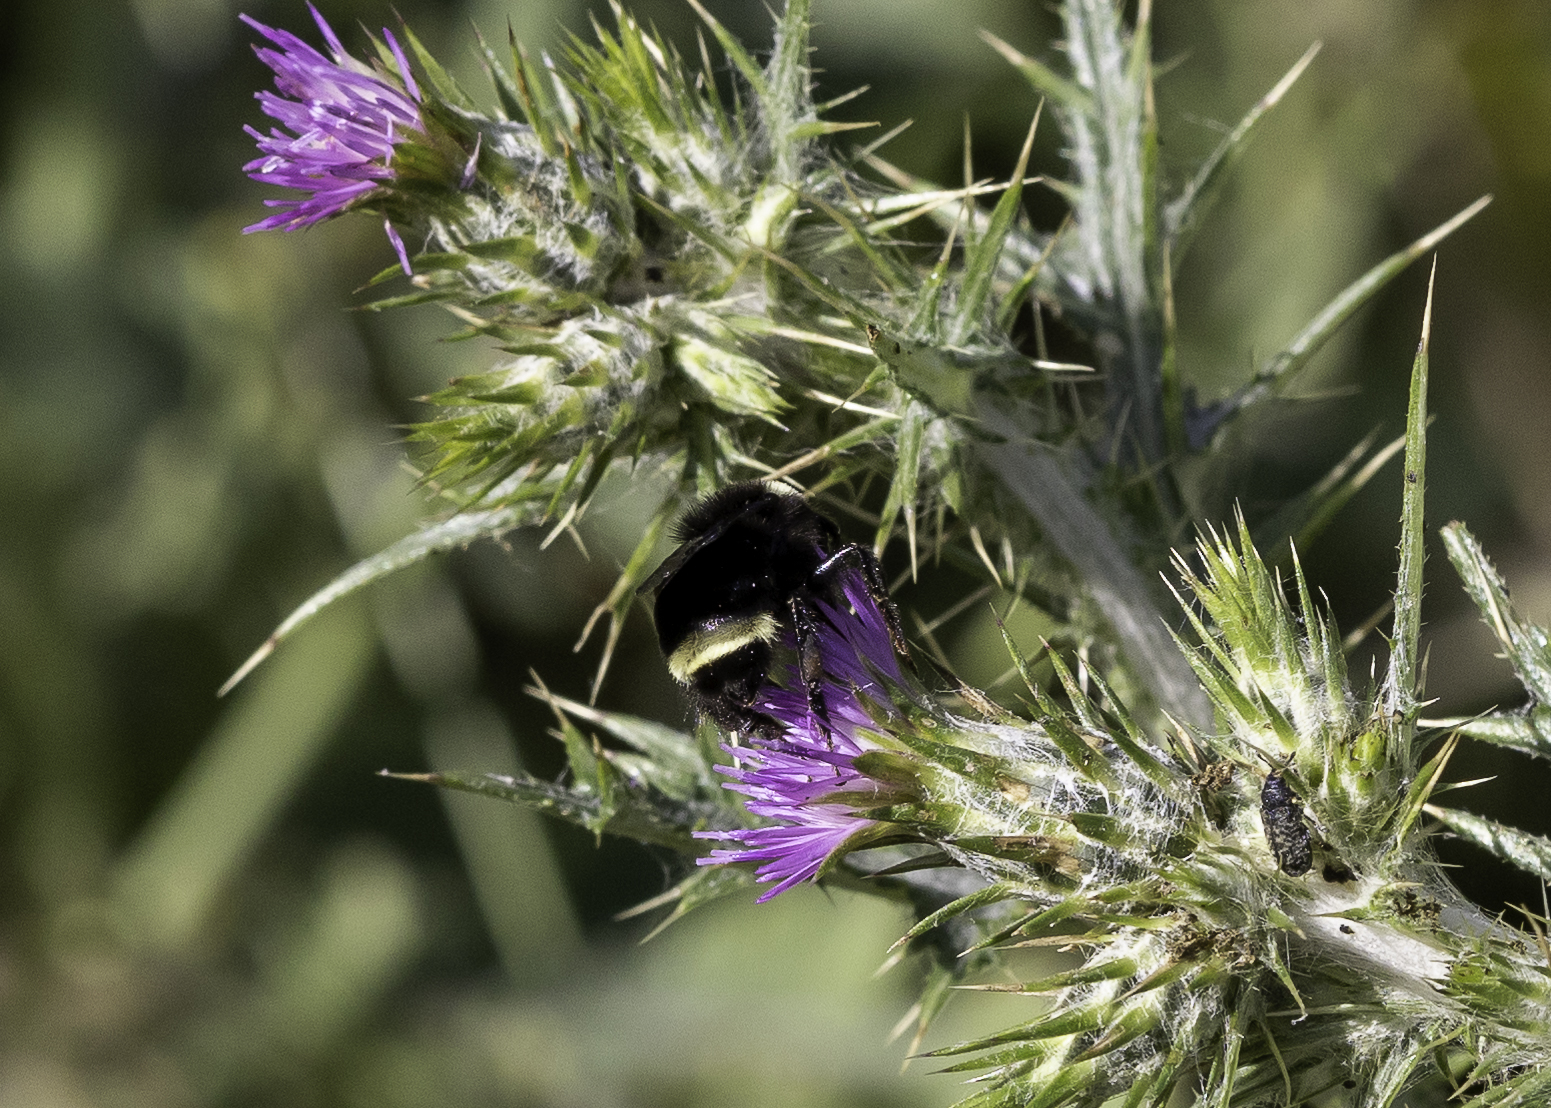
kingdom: Animalia
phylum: Arthropoda
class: Insecta
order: Hymenoptera
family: Apidae
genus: Bombus
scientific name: Bombus vosnesenskii
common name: Vosnesensky bumble bee
